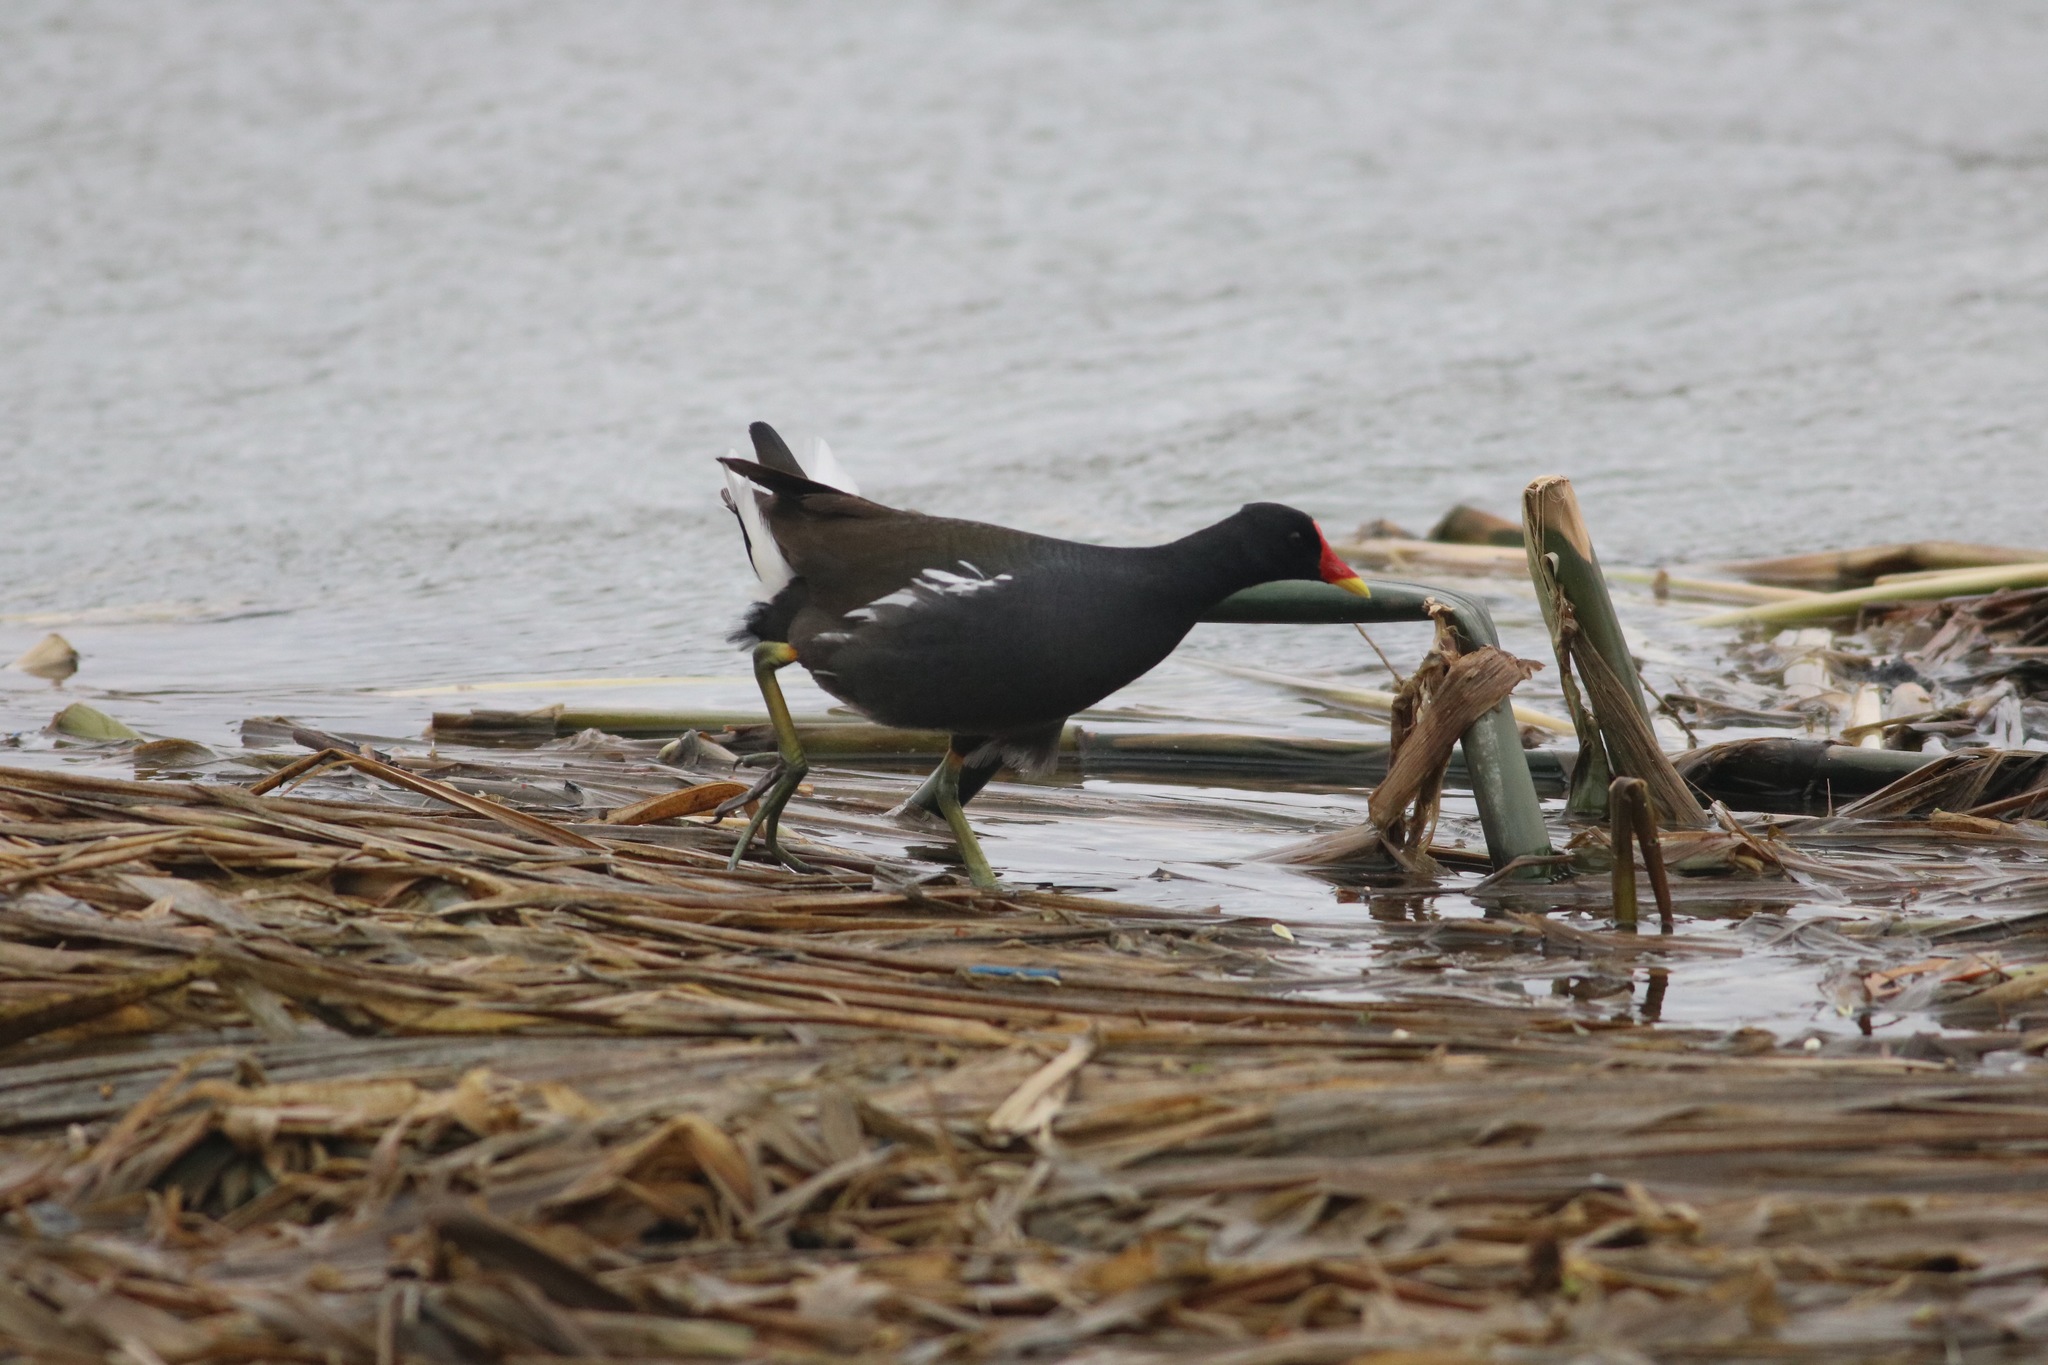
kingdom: Animalia
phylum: Chordata
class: Aves
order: Gruiformes
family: Rallidae
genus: Gallinula
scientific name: Gallinula chloropus
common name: Common moorhen
